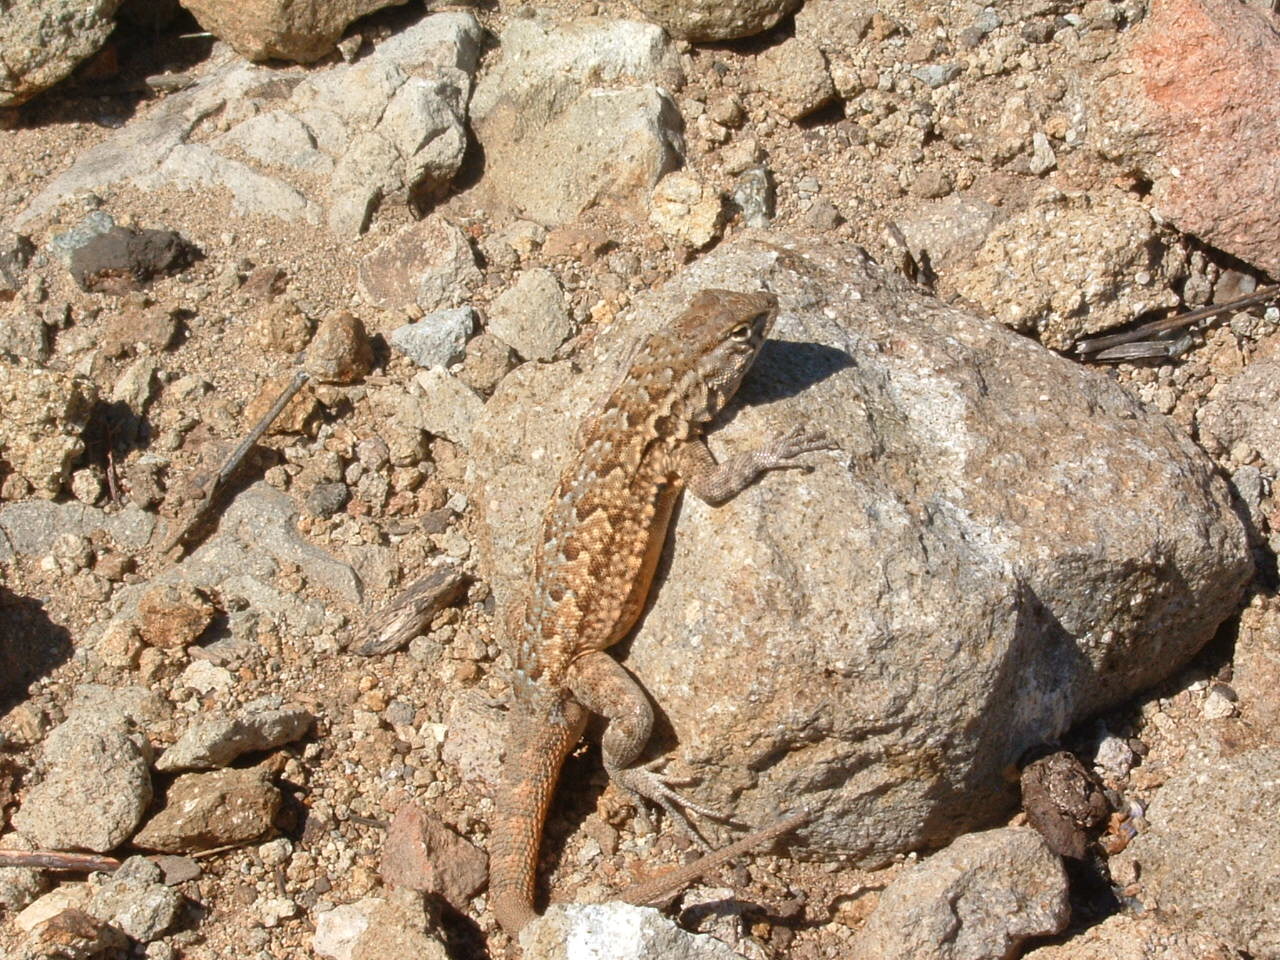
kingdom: Animalia
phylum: Chordata
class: Squamata
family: Phrynosomatidae
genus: Uta
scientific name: Uta stansburiana
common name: Side-blotched lizard
